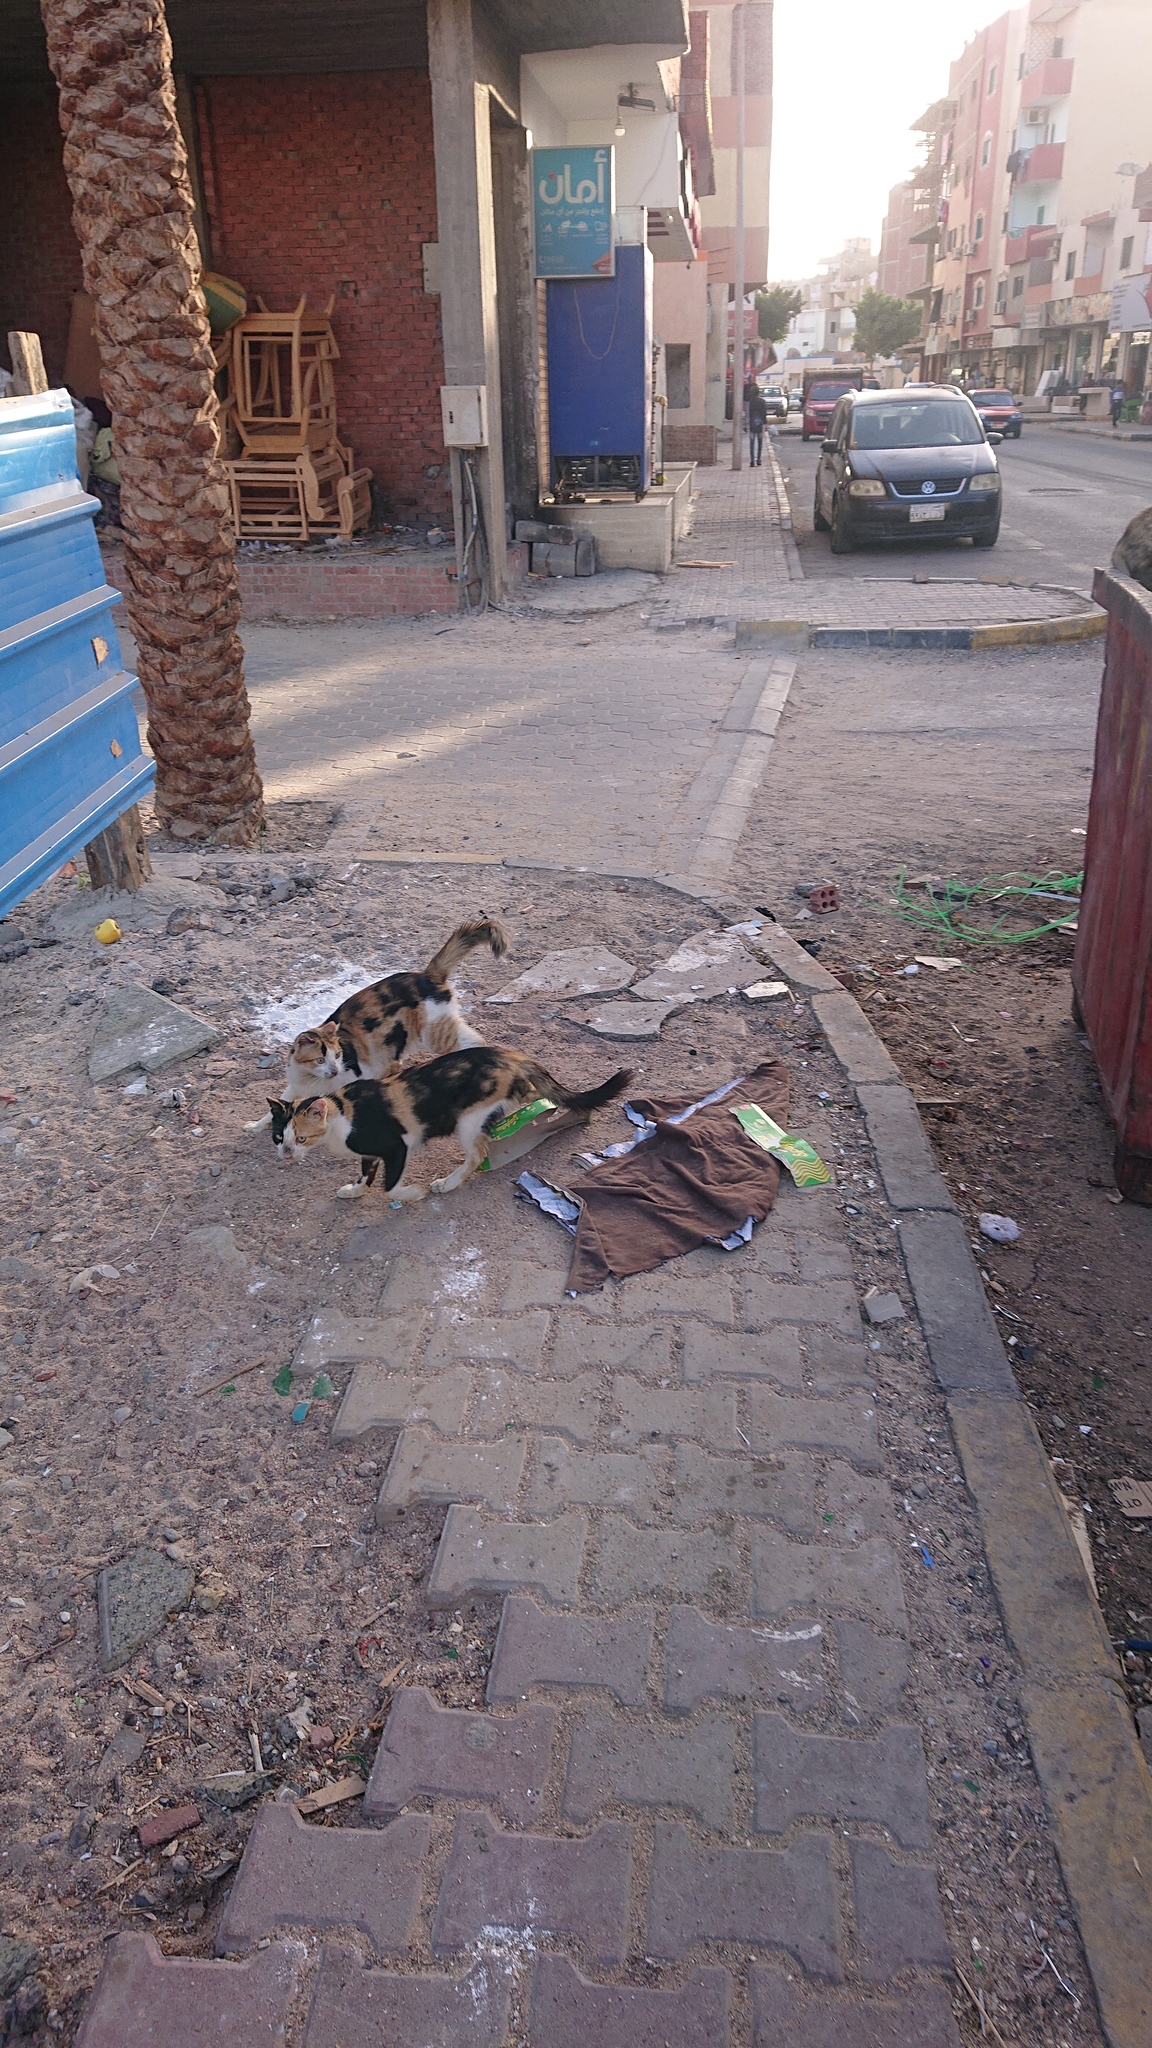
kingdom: Animalia
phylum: Chordata
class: Mammalia
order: Carnivora
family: Felidae
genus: Felis
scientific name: Felis catus
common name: Domestic cat
